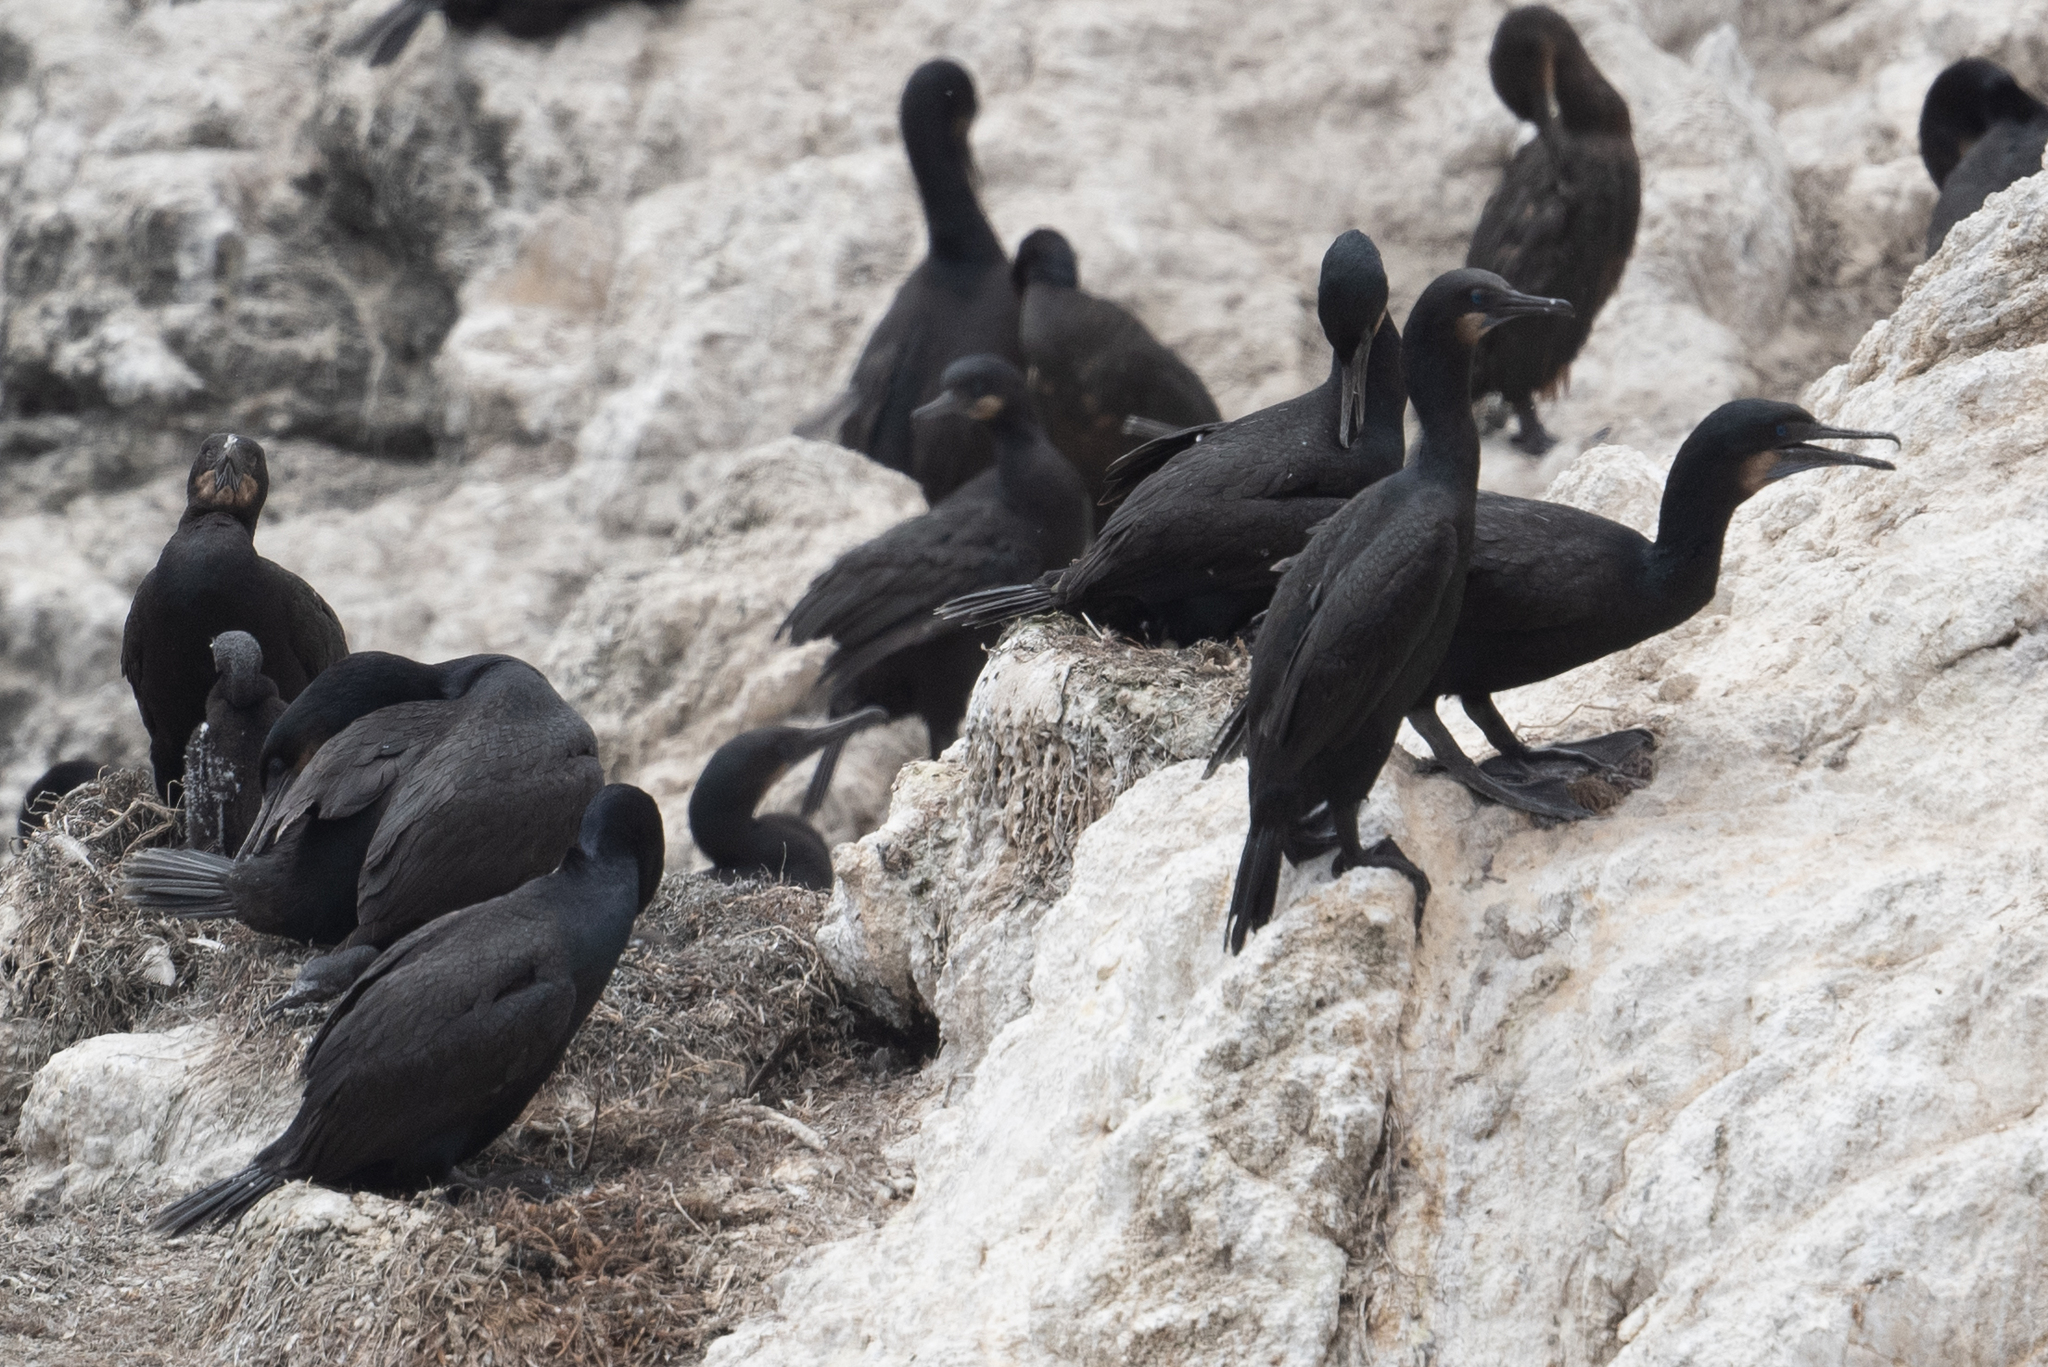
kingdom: Animalia
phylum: Chordata
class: Aves
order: Suliformes
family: Phalacrocoracidae
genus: Urile
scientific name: Urile penicillatus
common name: Brandt's cormorant
